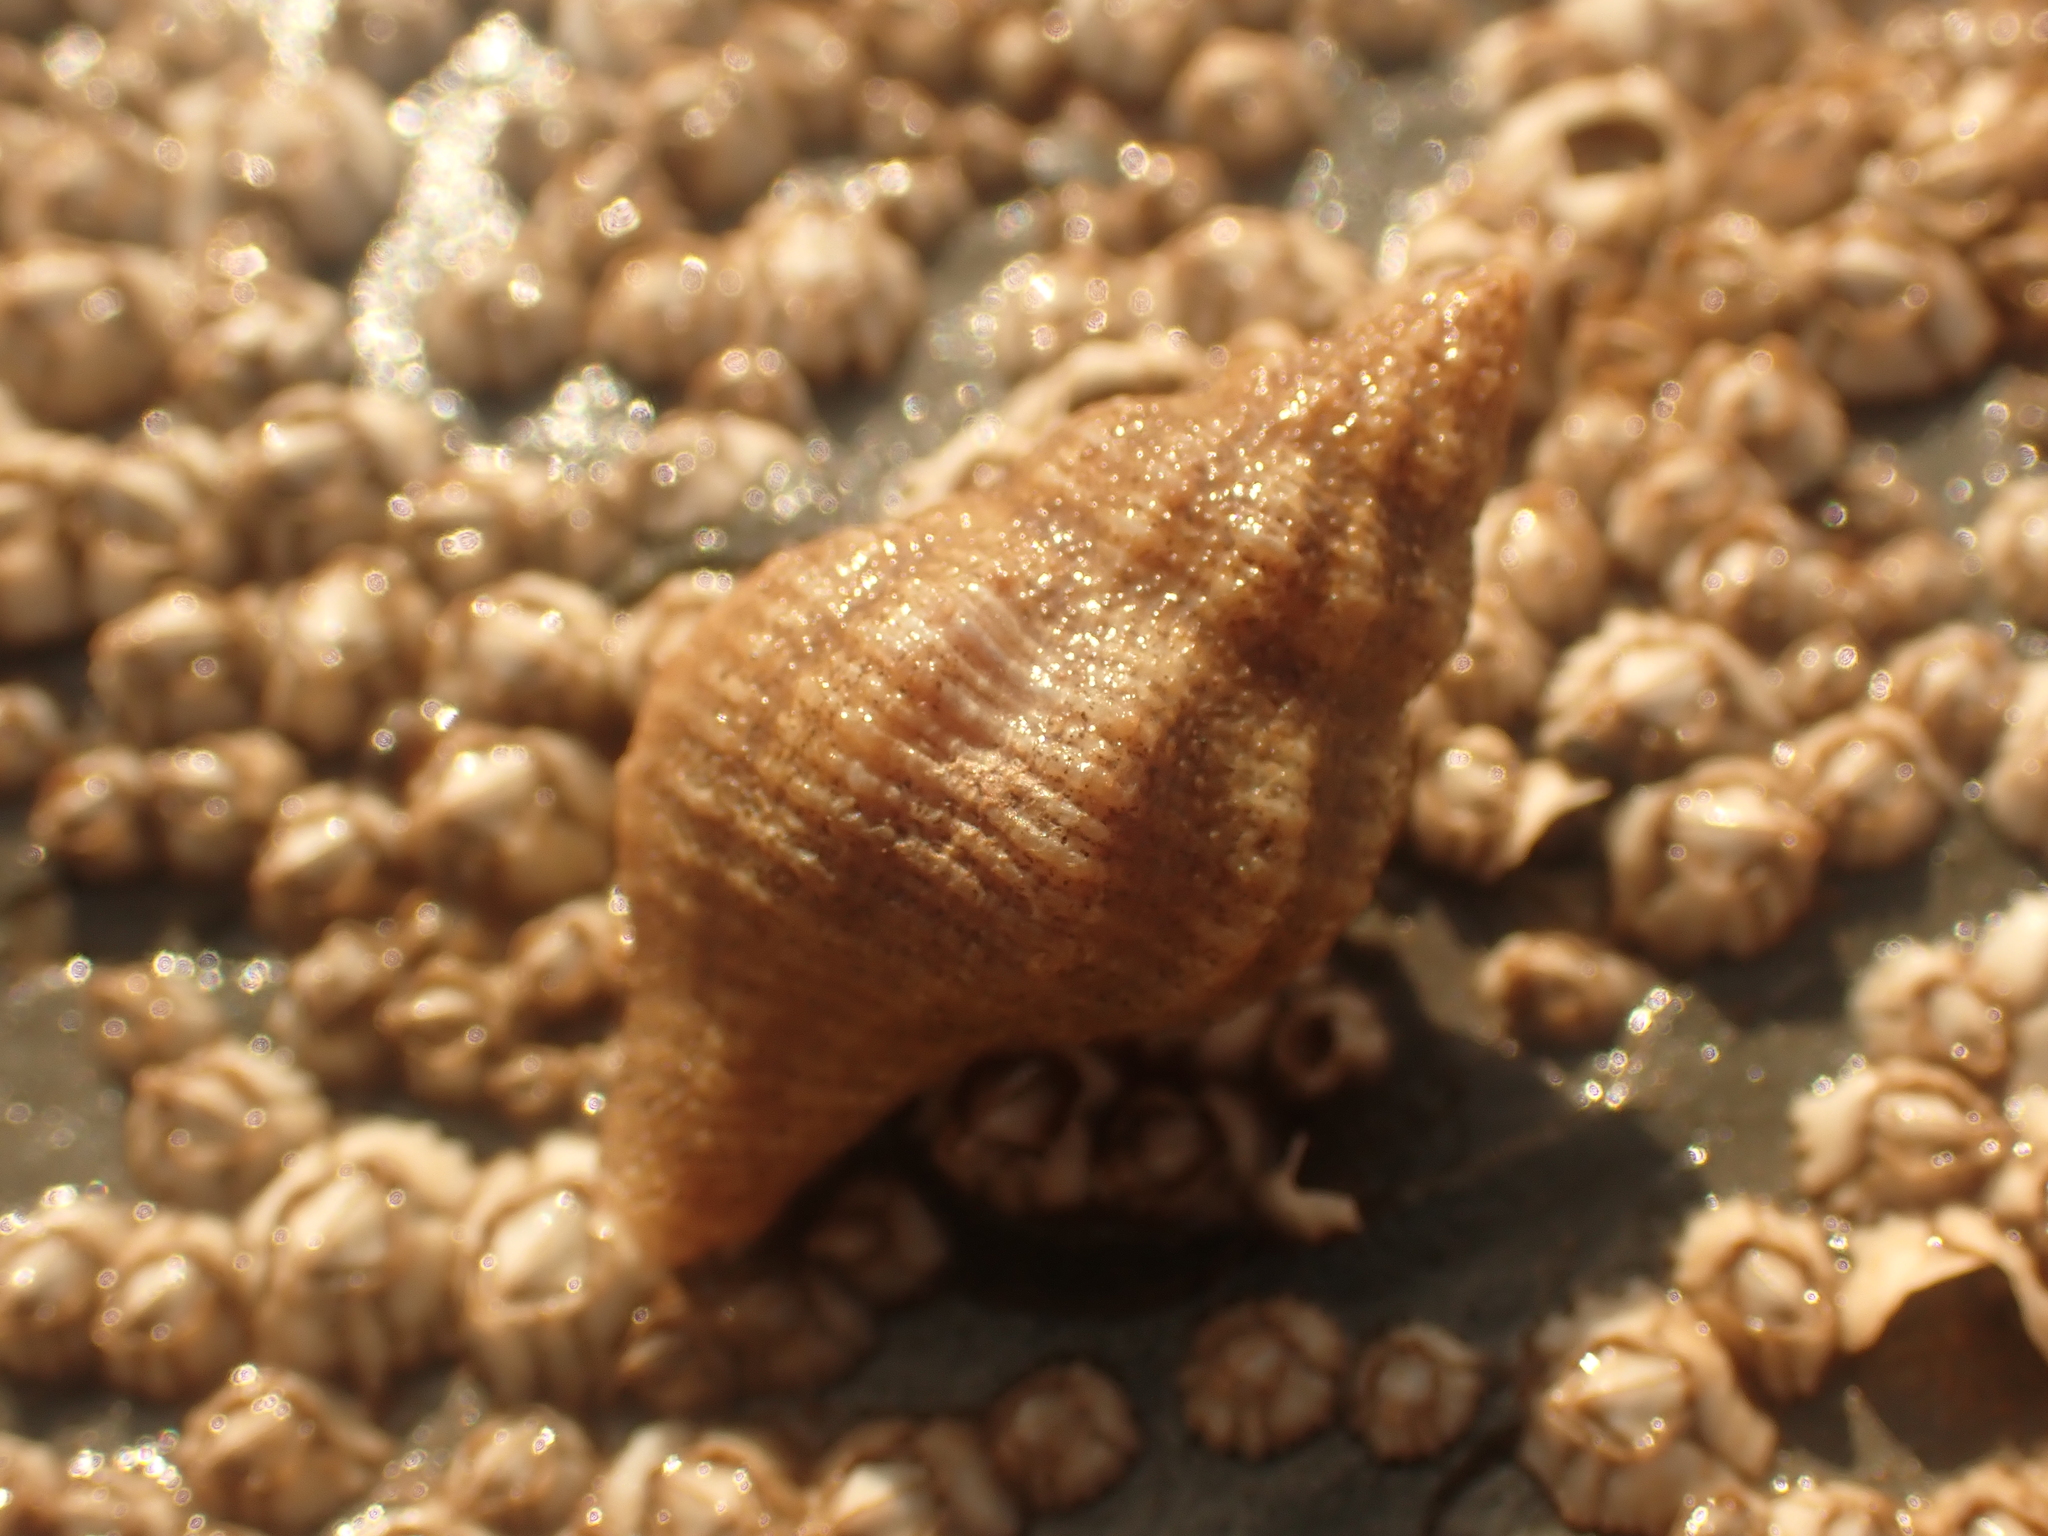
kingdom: Animalia
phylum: Mollusca
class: Gastropoda
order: Neogastropoda
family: Muricidae
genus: Urosalpinx
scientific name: Urosalpinx cinerea
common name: American sting winkle
